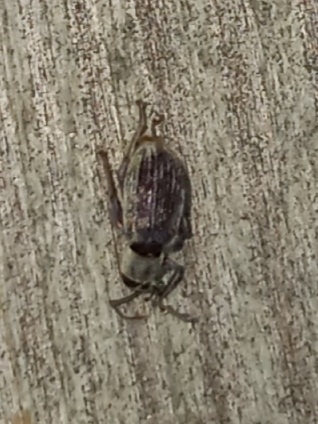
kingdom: Animalia
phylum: Arthropoda
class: Insecta
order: Coleoptera
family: Curculionidae
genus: Cyrtepistomus
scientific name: Cyrtepistomus castaneus
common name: Weevil
